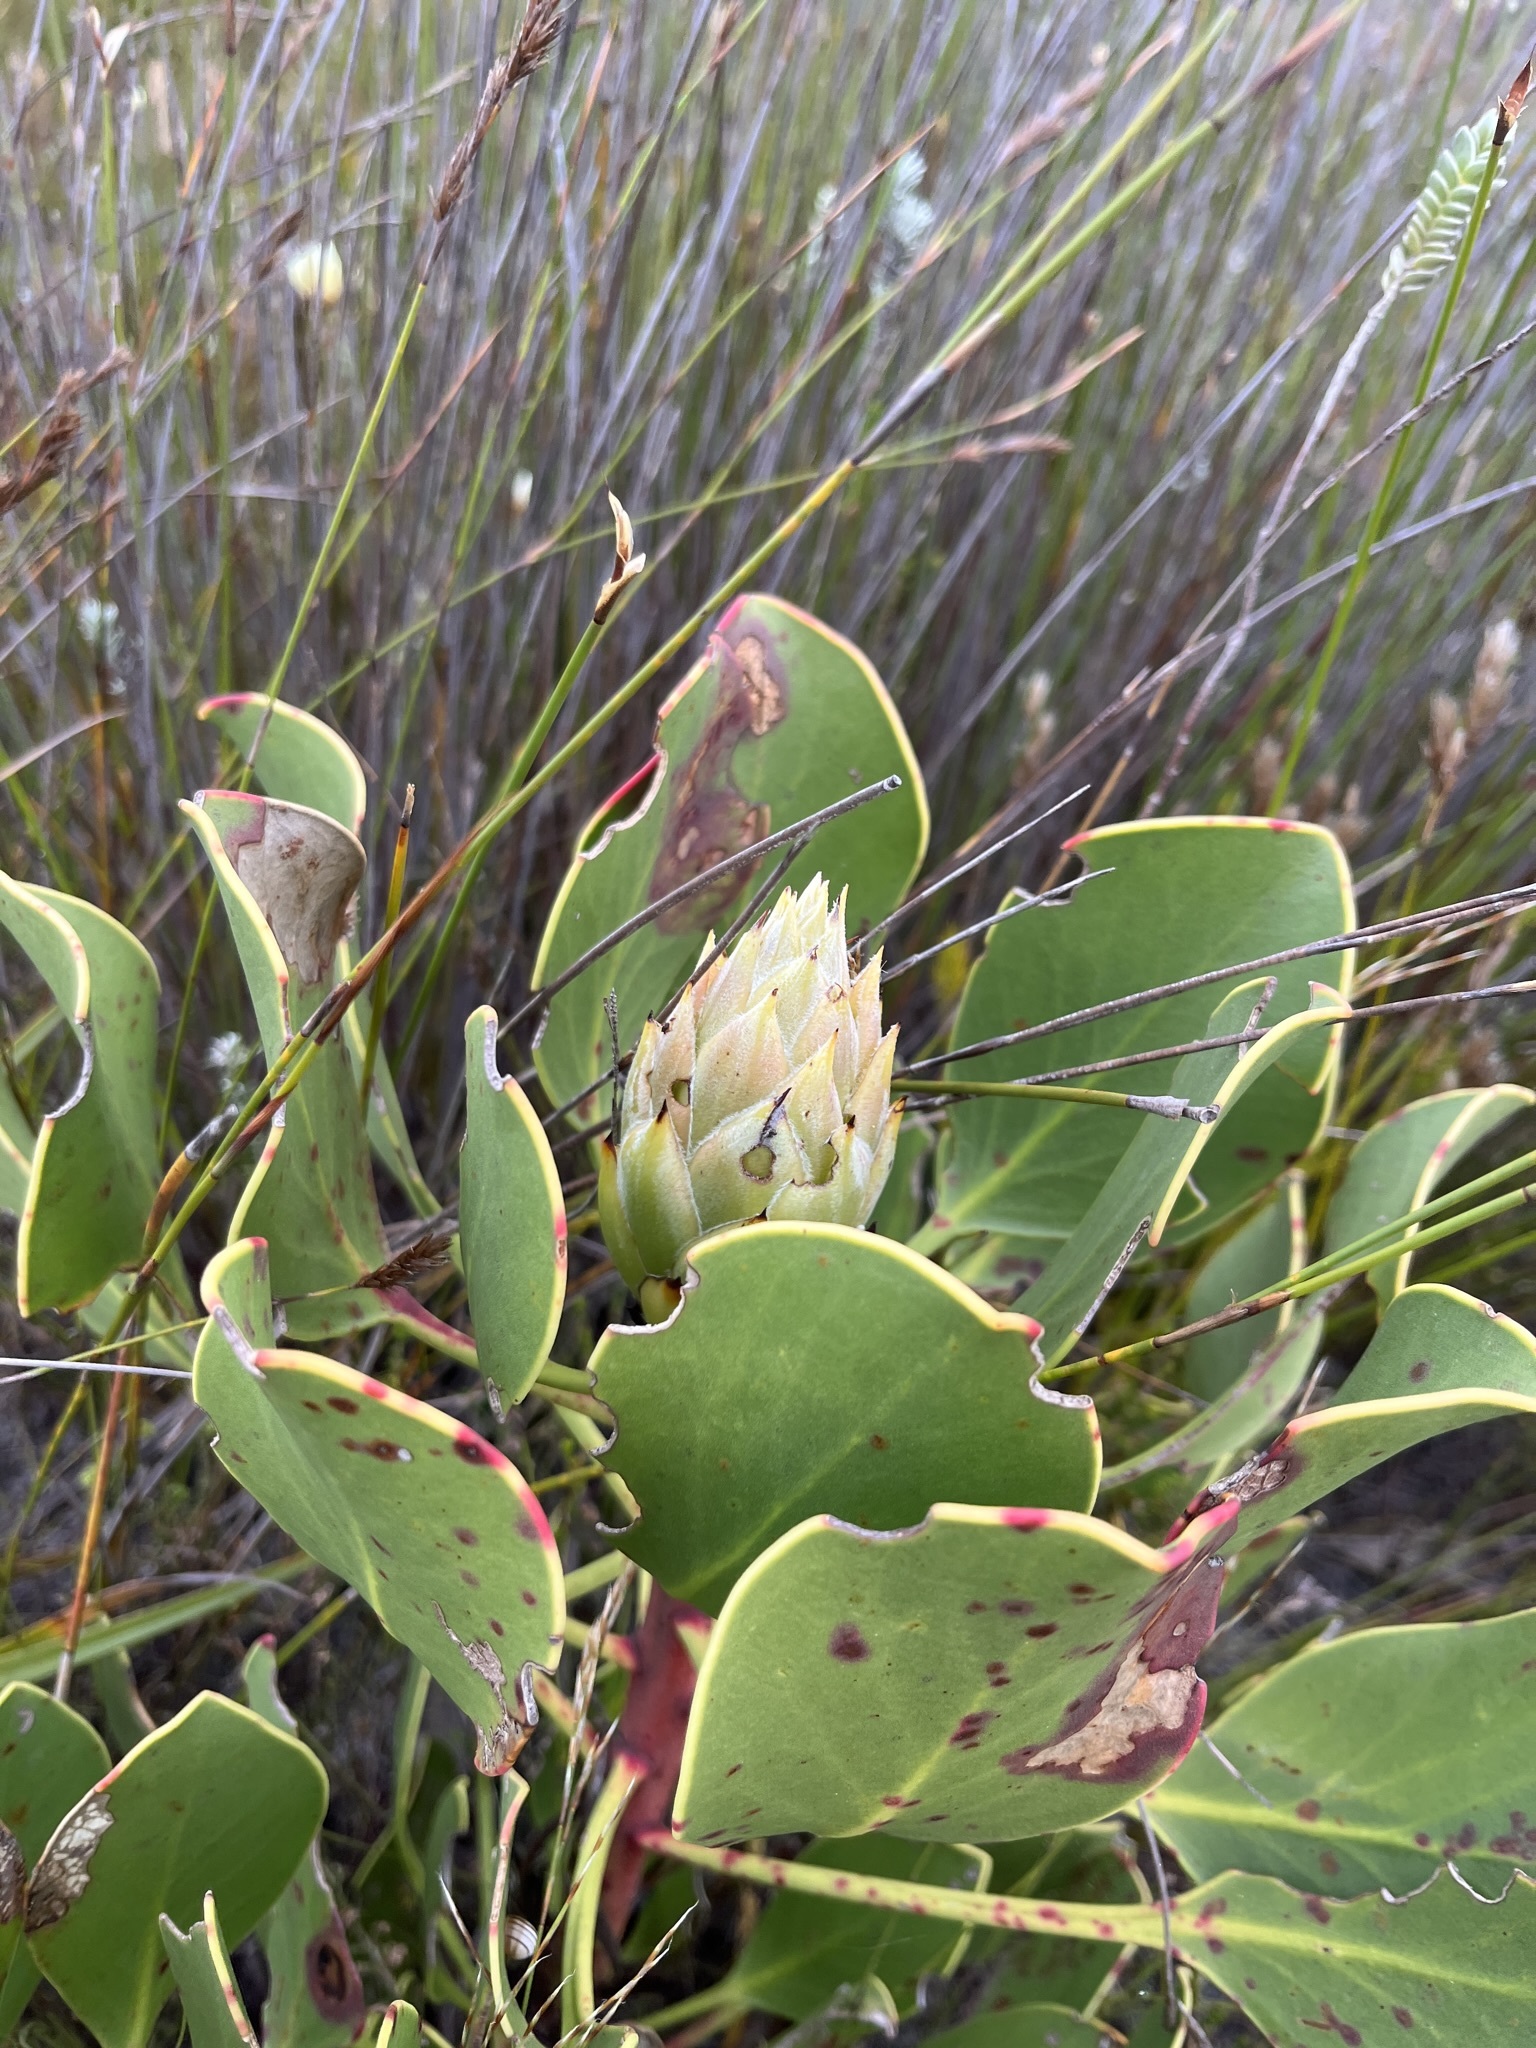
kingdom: Plantae
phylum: Tracheophyta
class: Magnoliopsida
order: Proteales
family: Proteaceae
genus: Protea
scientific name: Protea cynaroides
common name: King protea
